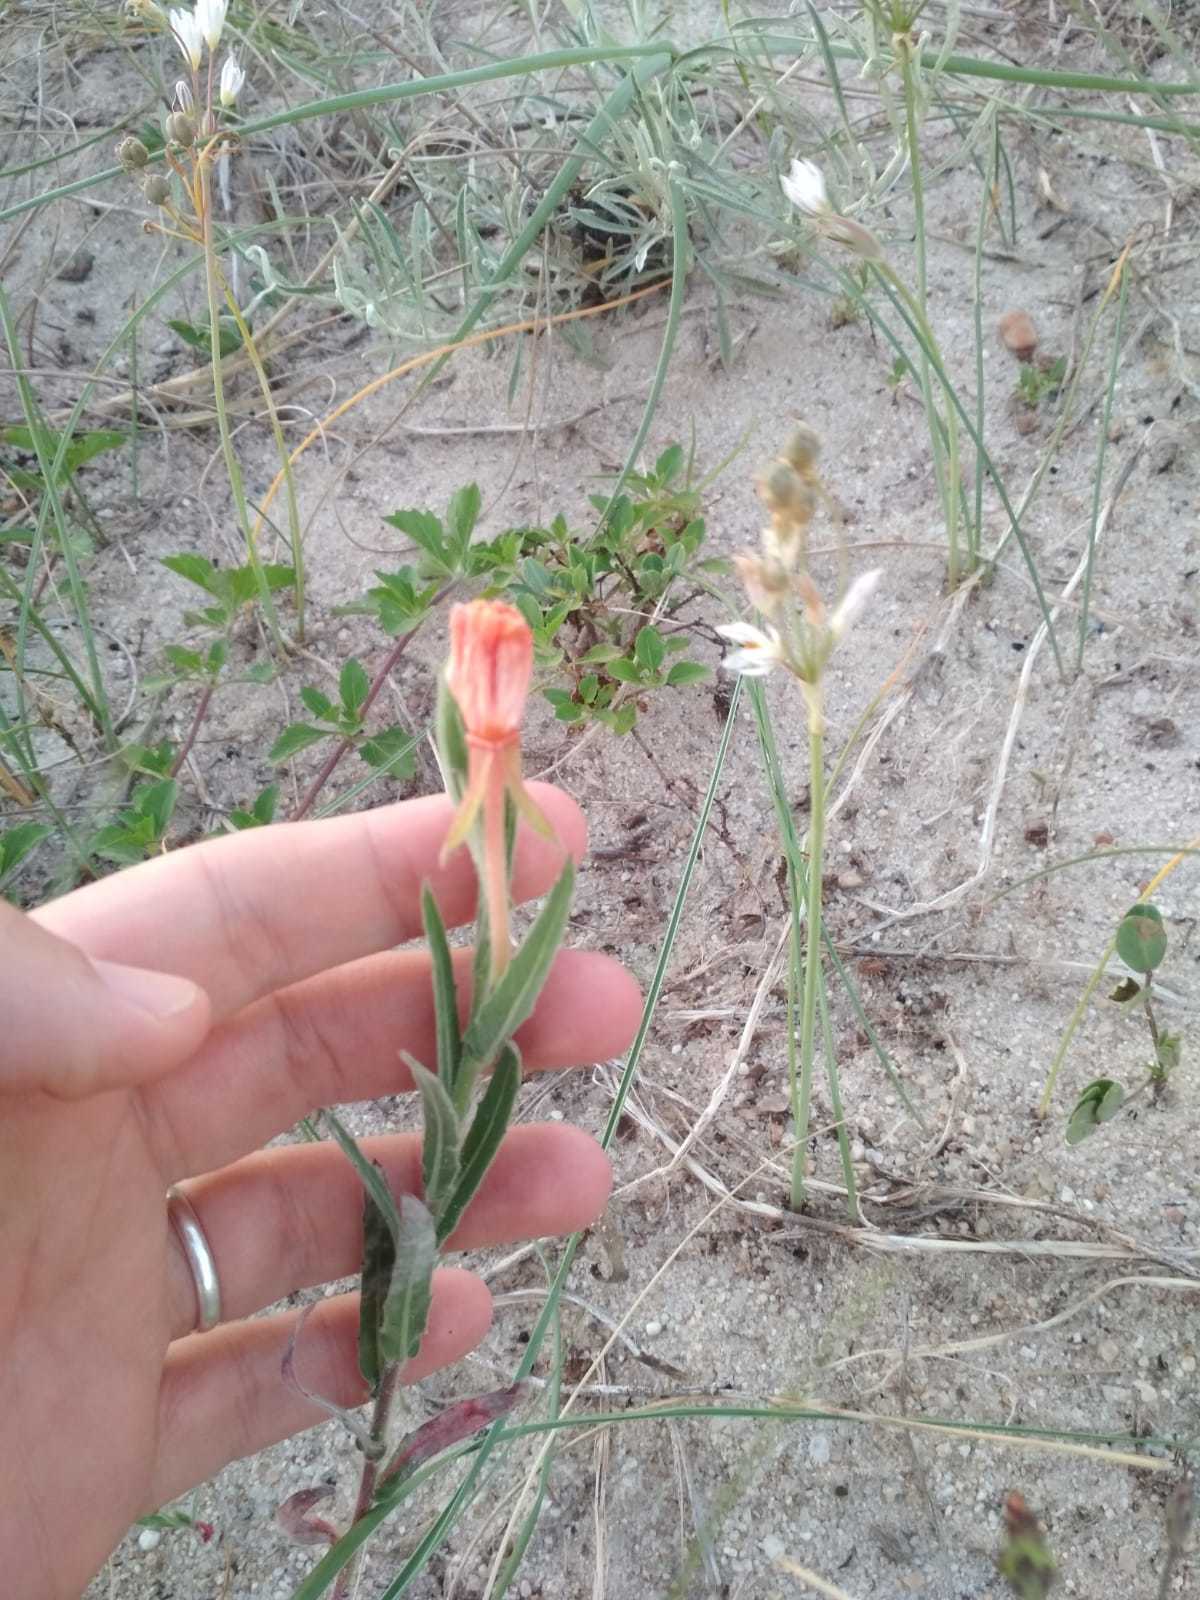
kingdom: Plantae
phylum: Tracheophyta
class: Magnoliopsida
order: Myrtales
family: Onagraceae
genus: Oenothera
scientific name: Oenothera mollissima
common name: Argentine evening primrose
